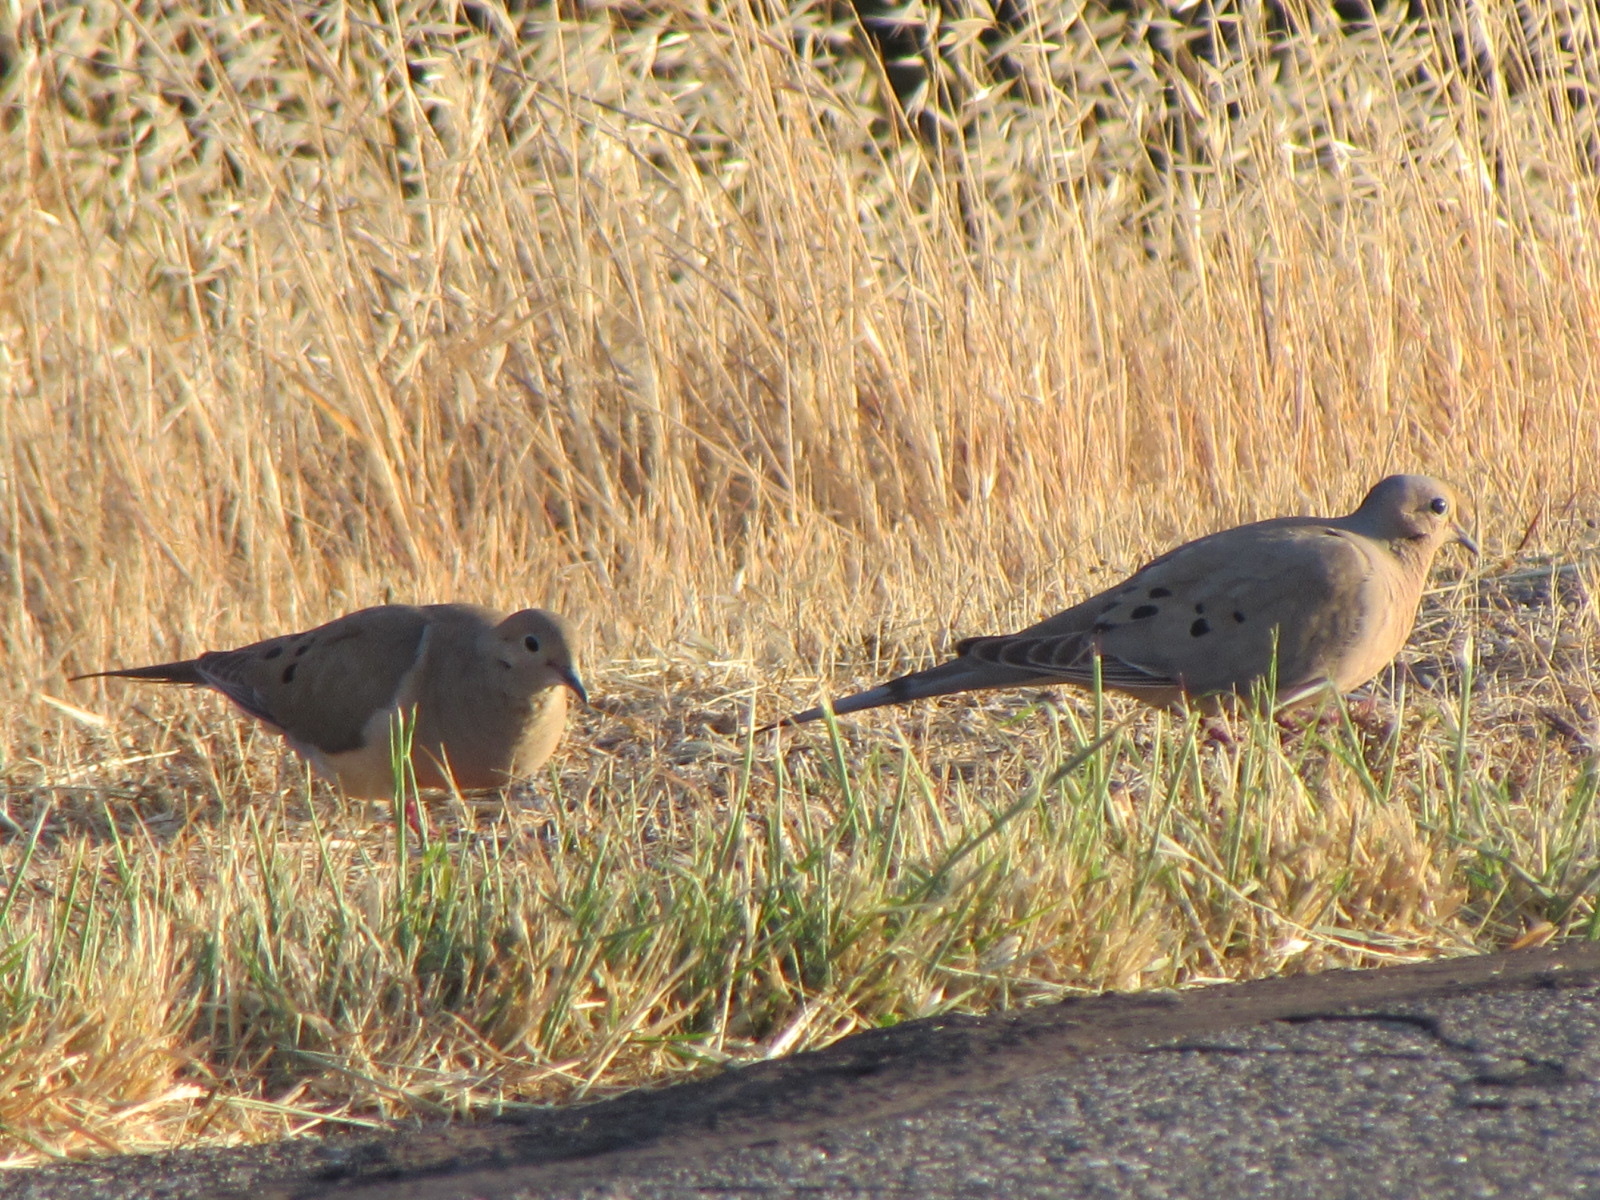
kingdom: Animalia
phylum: Chordata
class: Aves
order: Columbiformes
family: Columbidae
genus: Zenaida
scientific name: Zenaida macroura
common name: Mourning dove
